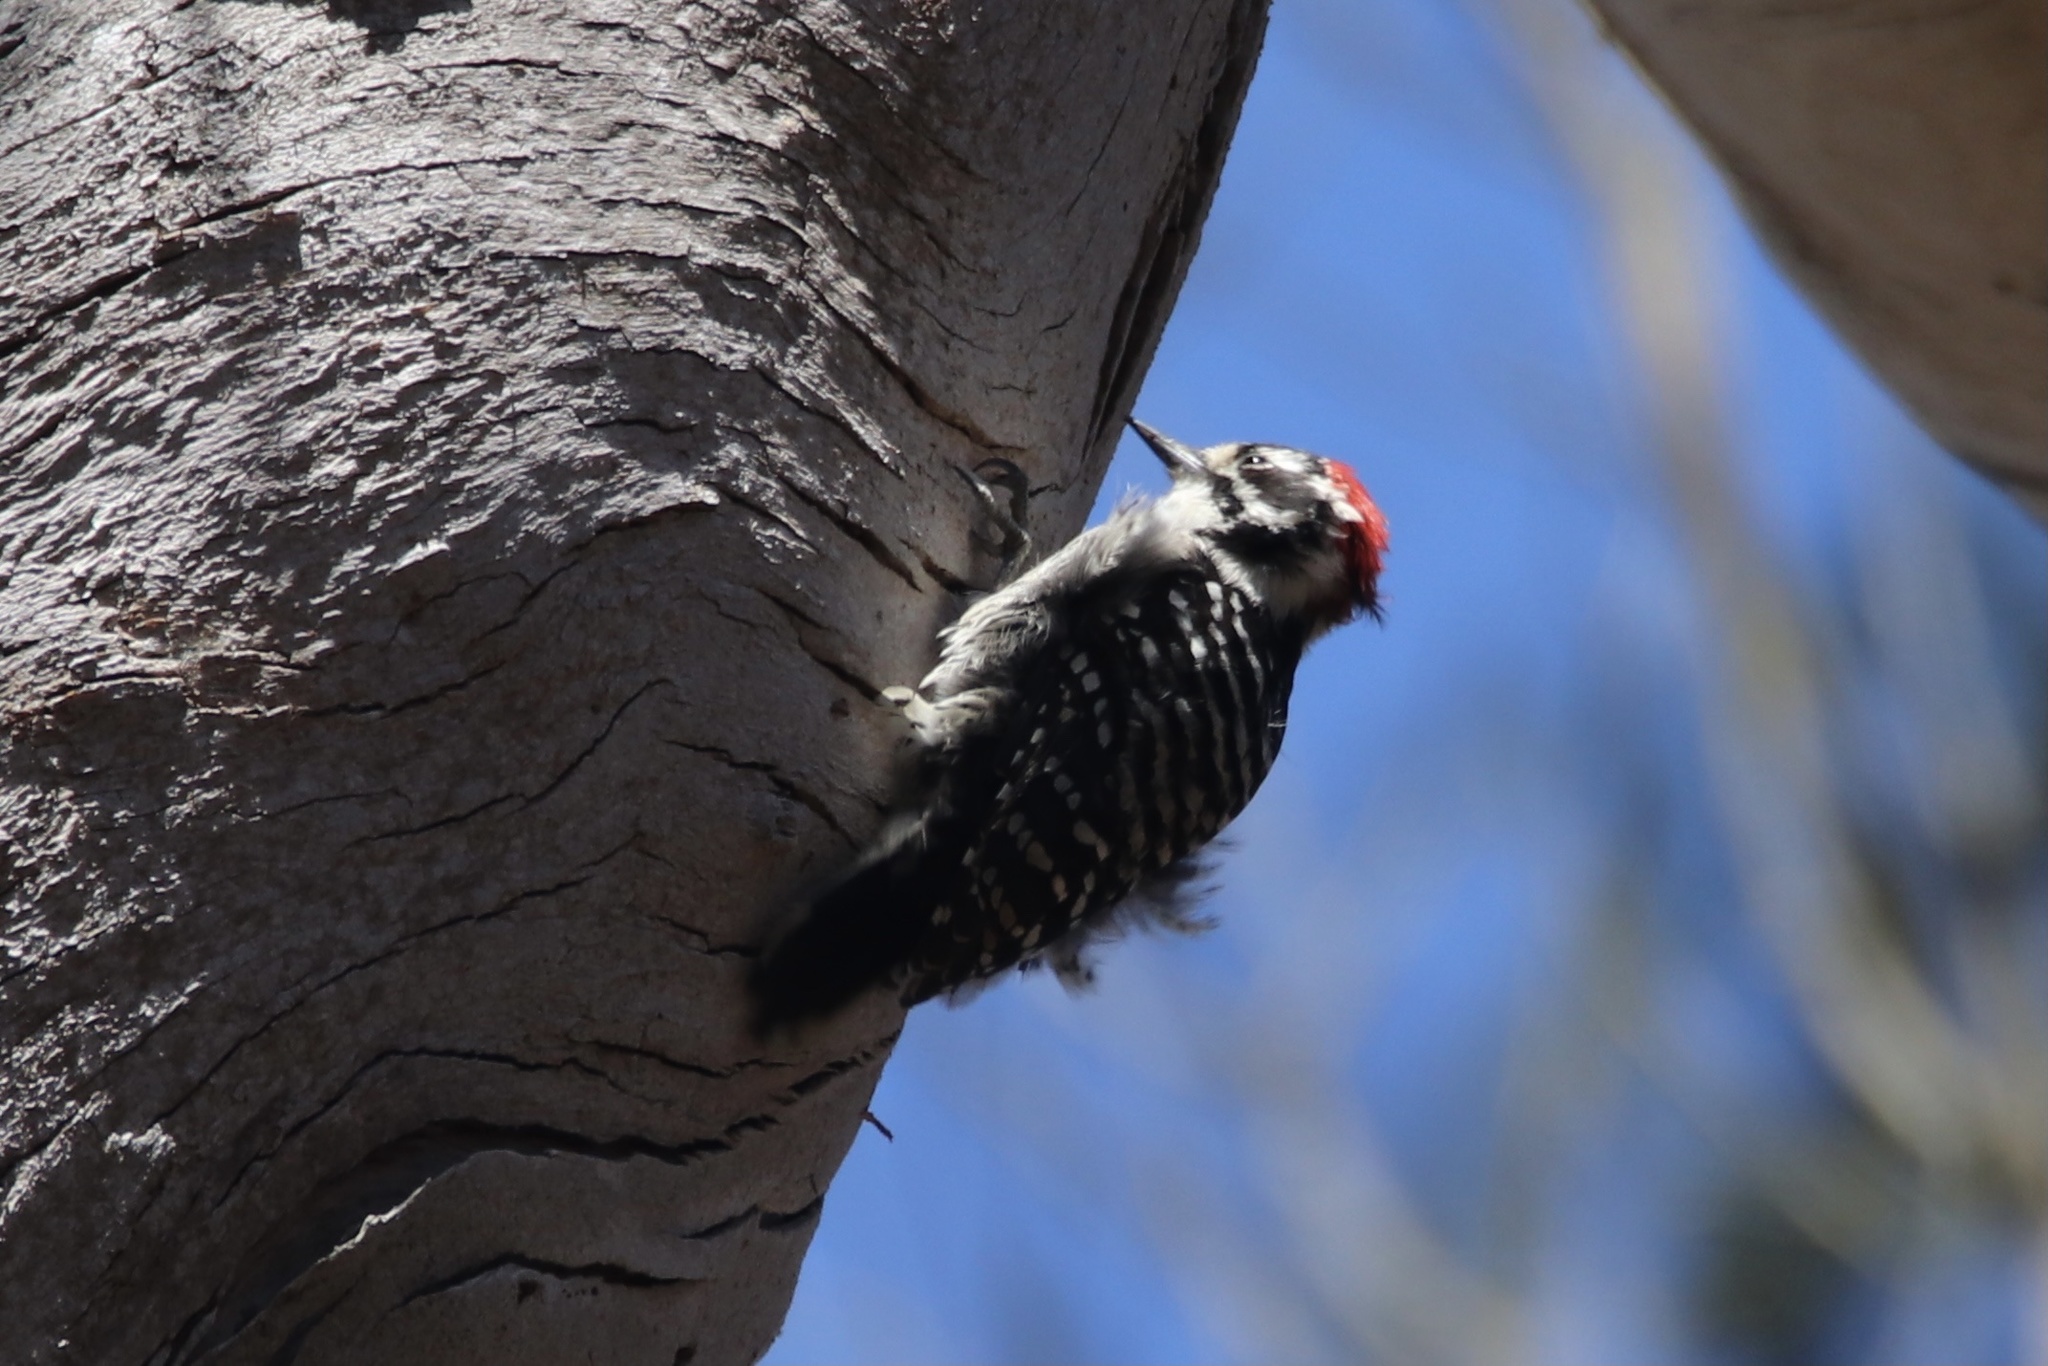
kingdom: Animalia
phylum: Chordata
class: Aves
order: Piciformes
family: Picidae
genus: Dryobates
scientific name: Dryobates nuttallii
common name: Nuttall's woodpecker
